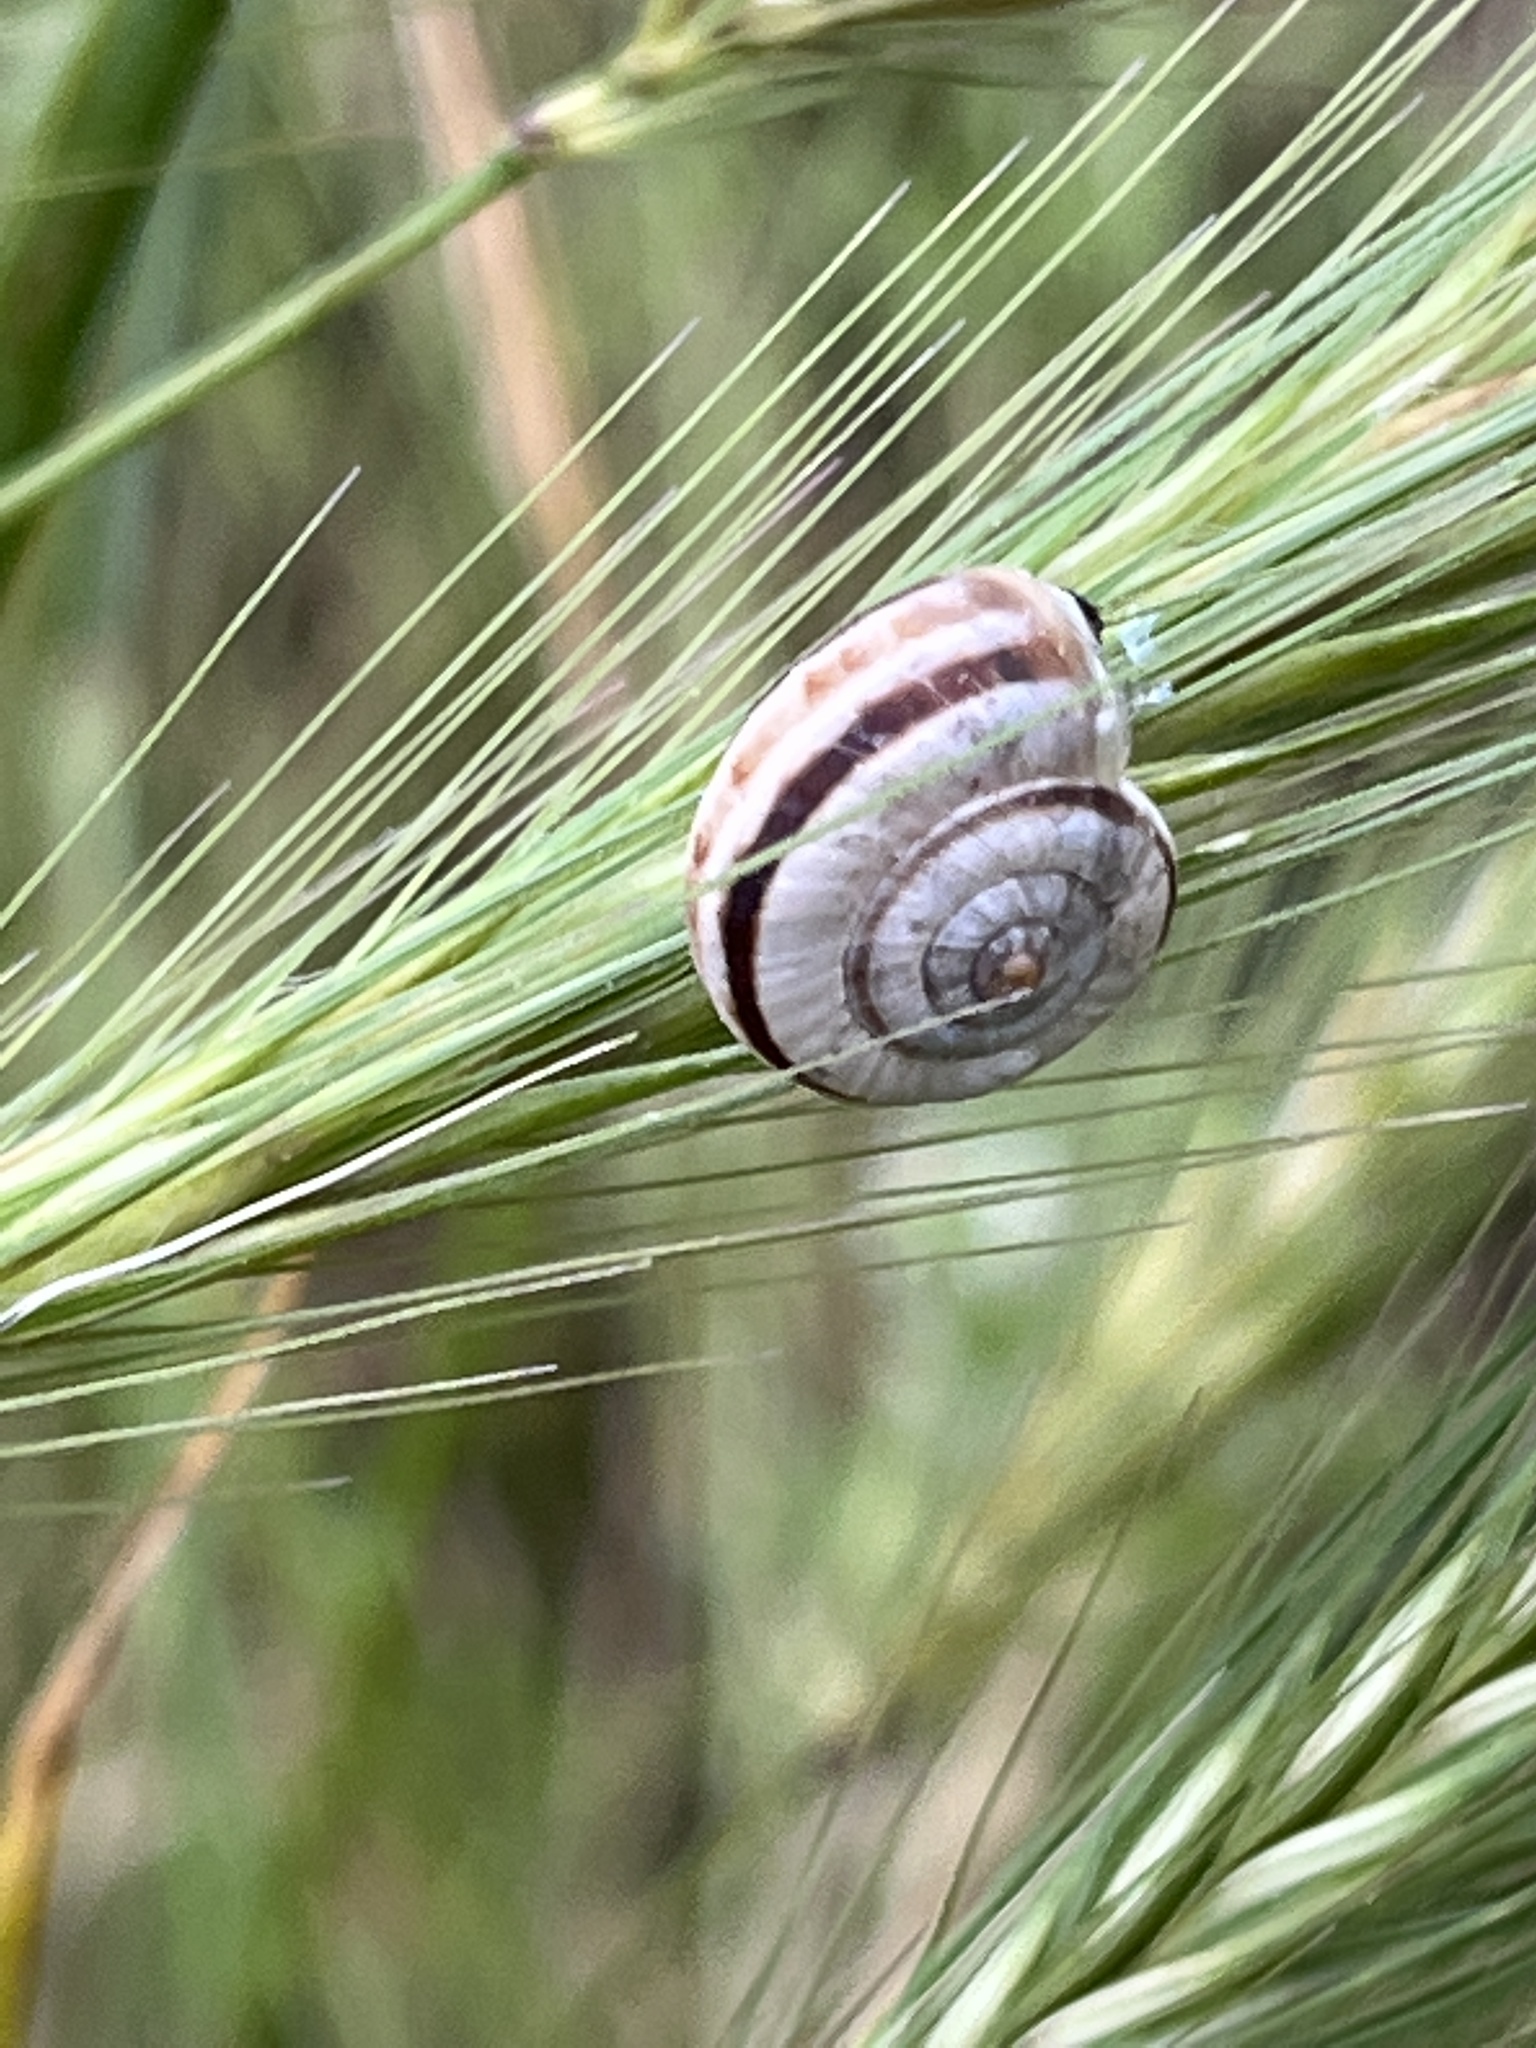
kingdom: Animalia
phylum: Mollusca
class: Gastropoda
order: Stylommatophora
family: Geomitridae
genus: Xerolenta
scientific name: Xerolenta obvia
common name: White heath snail
